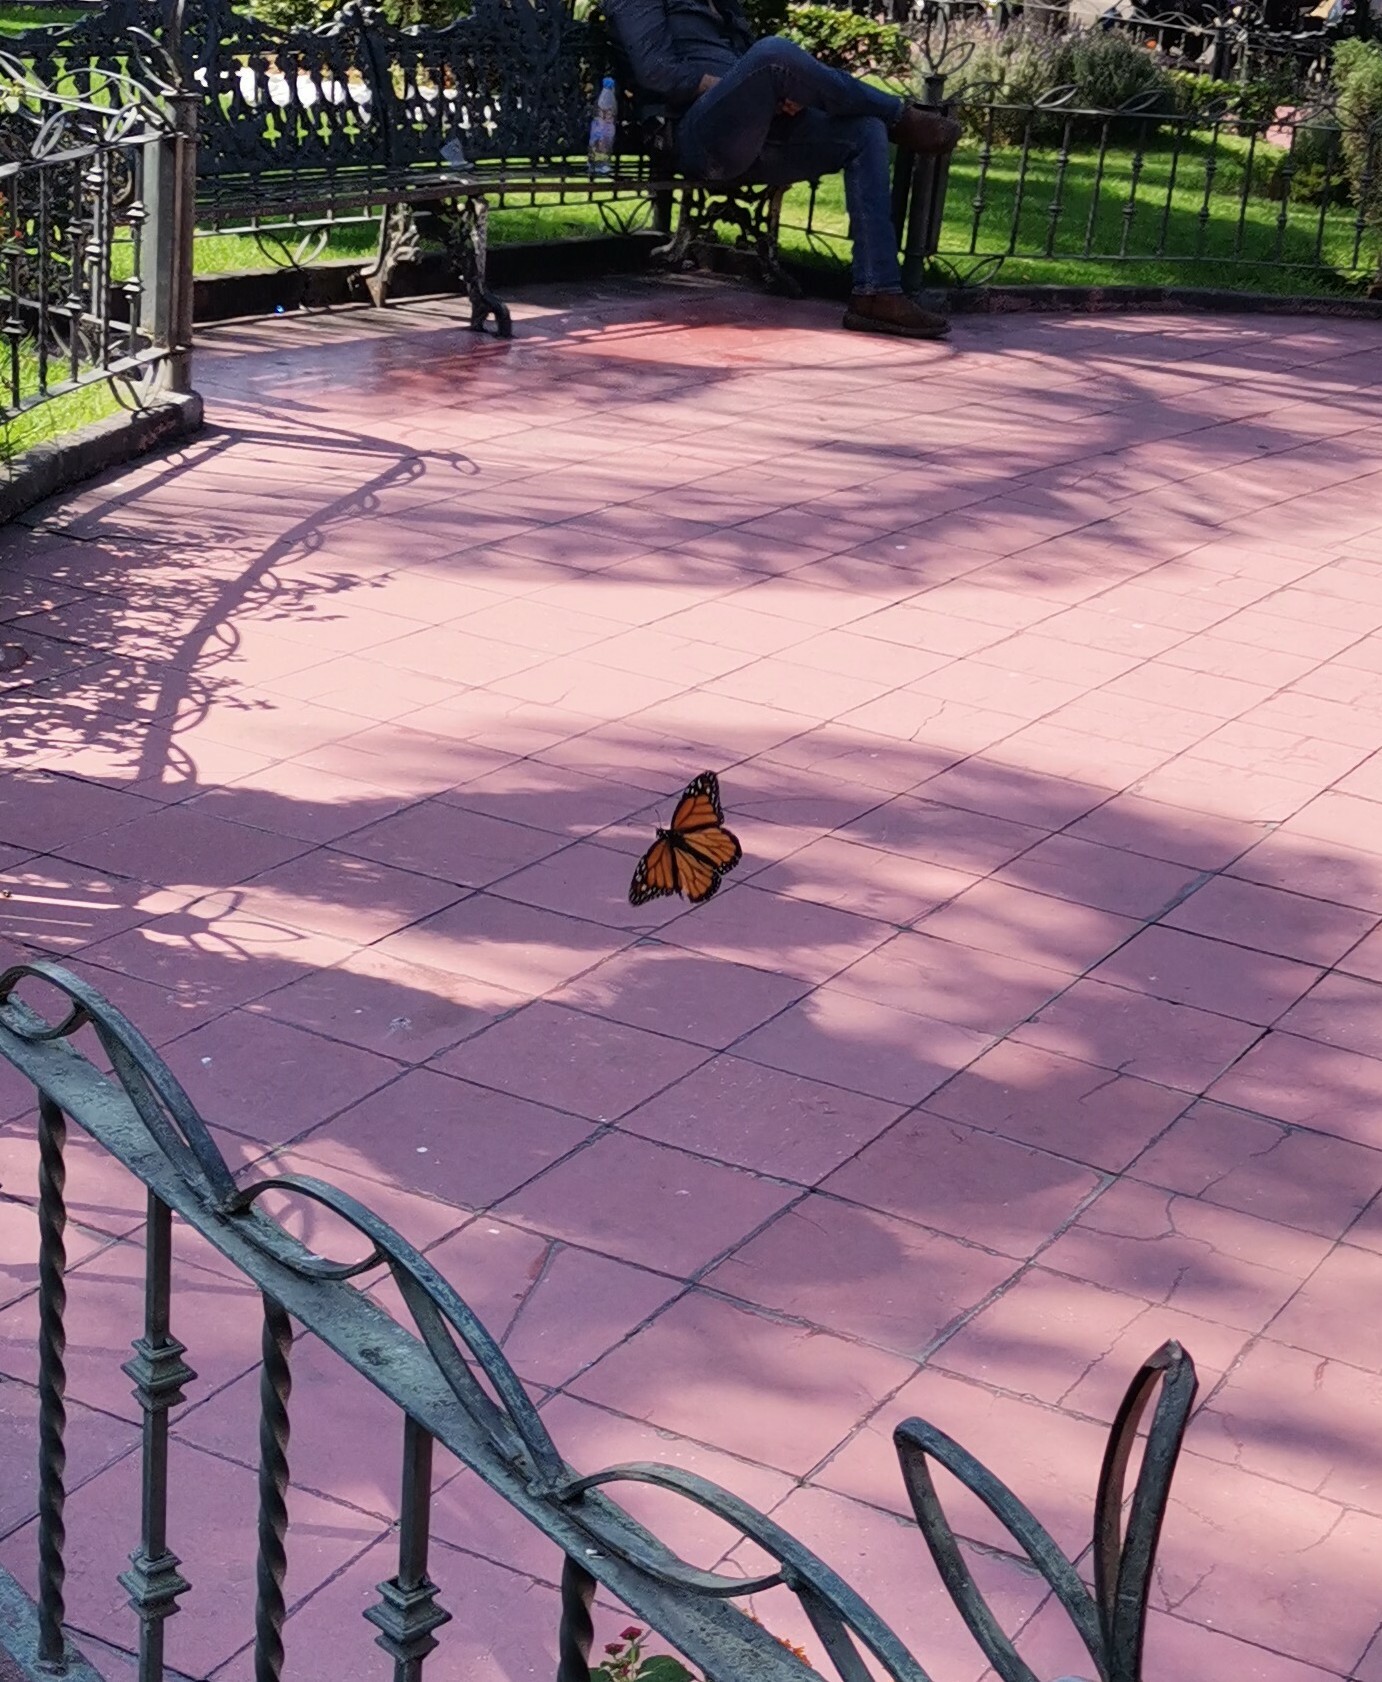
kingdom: Animalia
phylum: Arthropoda
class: Insecta
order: Lepidoptera
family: Nymphalidae
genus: Danaus
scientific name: Danaus plexippus
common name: Monarch
